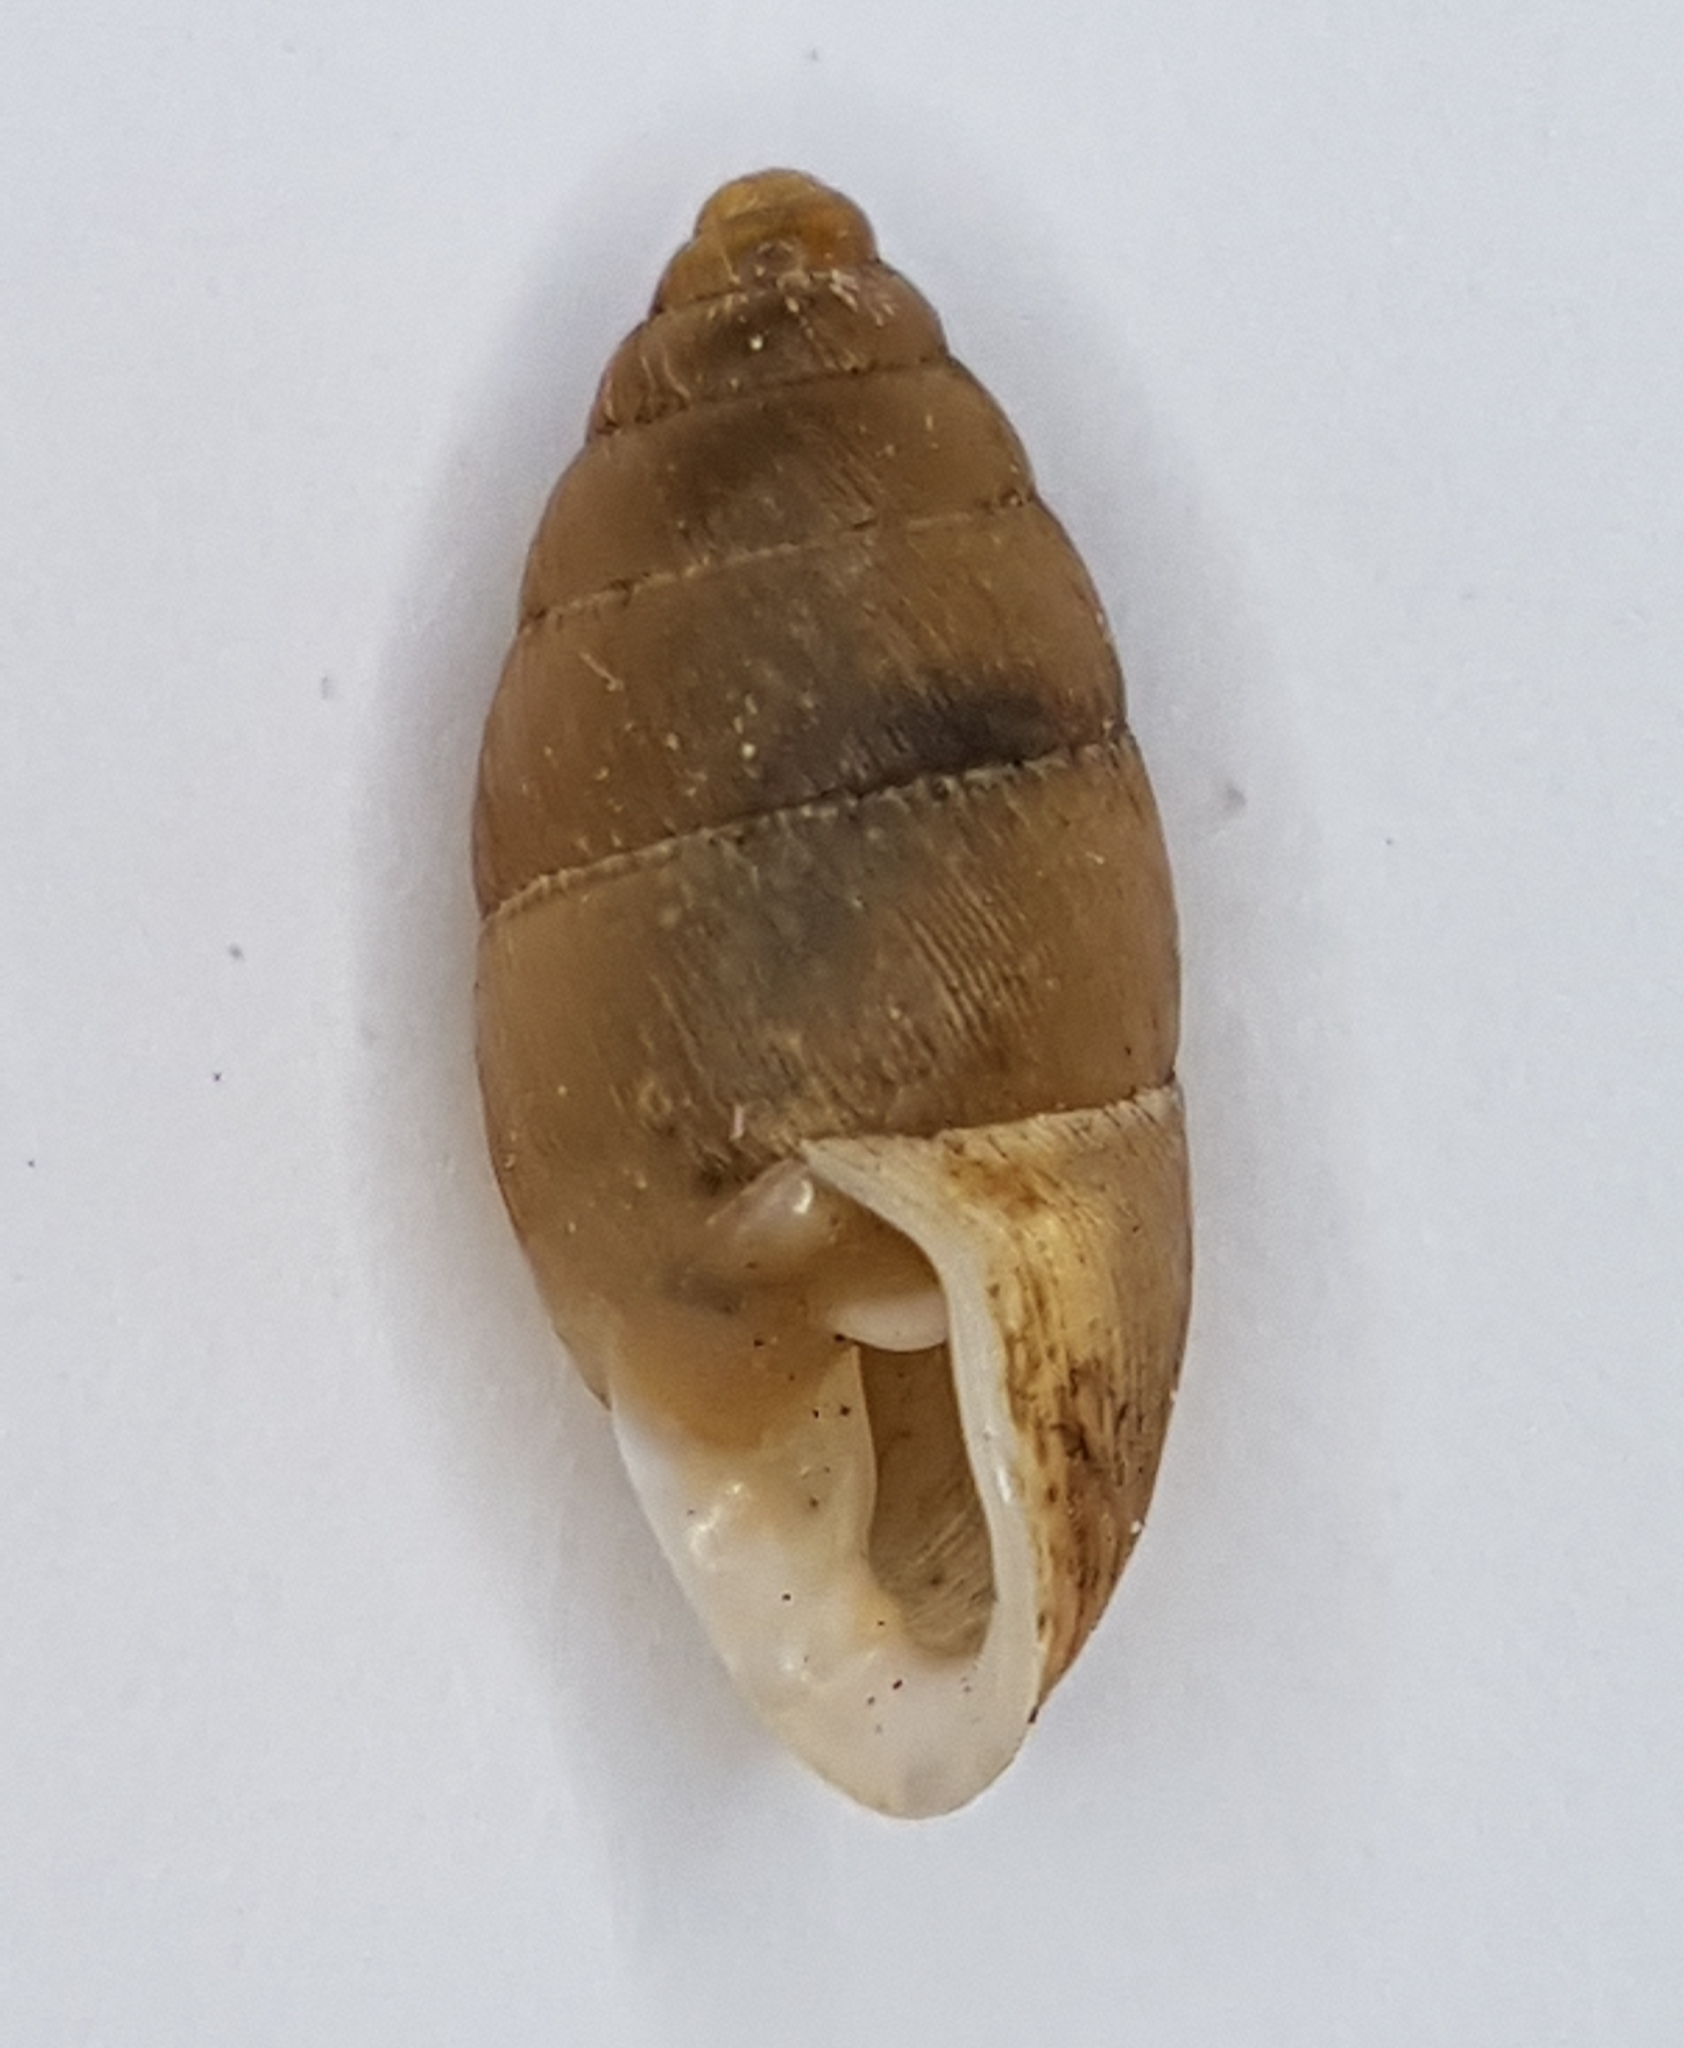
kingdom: Animalia
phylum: Mollusca
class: Gastropoda
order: Stylommatophora
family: Enidae
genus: Chondrula
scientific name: Chondrula tridens
